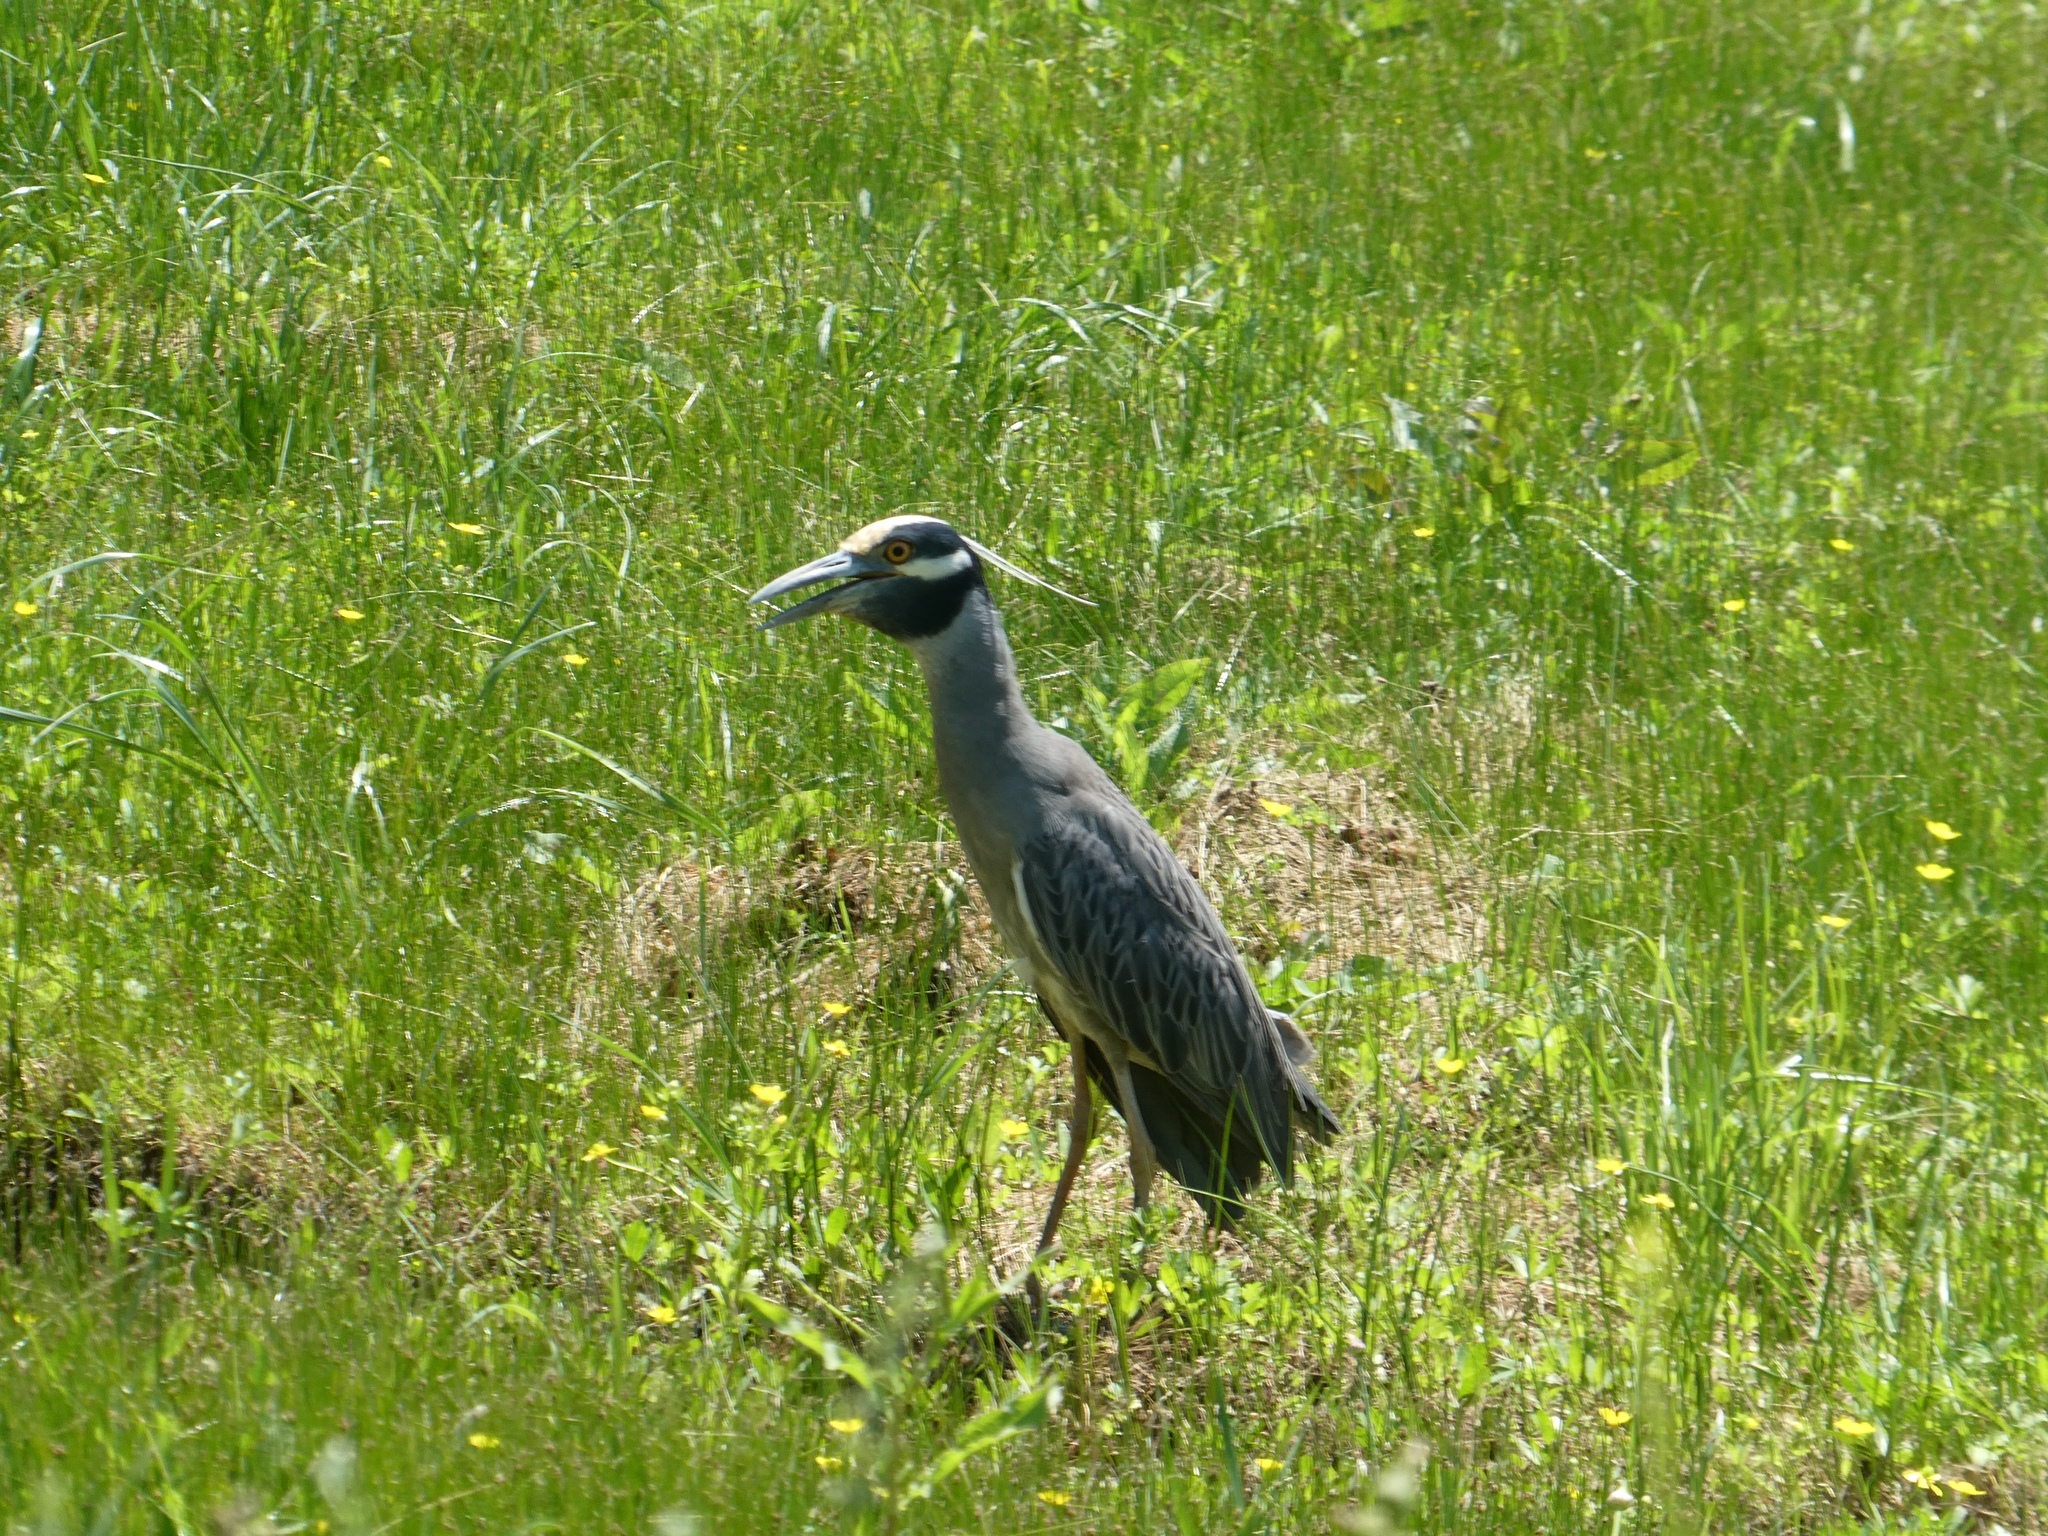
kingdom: Animalia
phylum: Chordata
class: Aves
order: Pelecaniformes
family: Ardeidae
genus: Nyctanassa
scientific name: Nyctanassa violacea
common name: Yellow-crowned night heron
